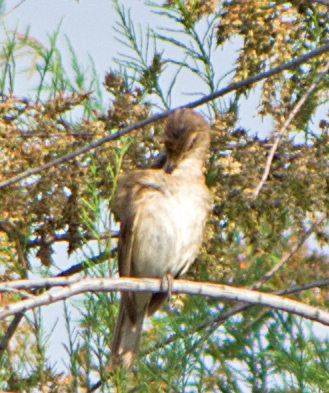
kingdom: Animalia
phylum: Chordata
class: Aves
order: Passeriformes
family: Acrocephalidae
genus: Acrocephalus
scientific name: Acrocephalus arundinaceus
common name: Great reed warbler
